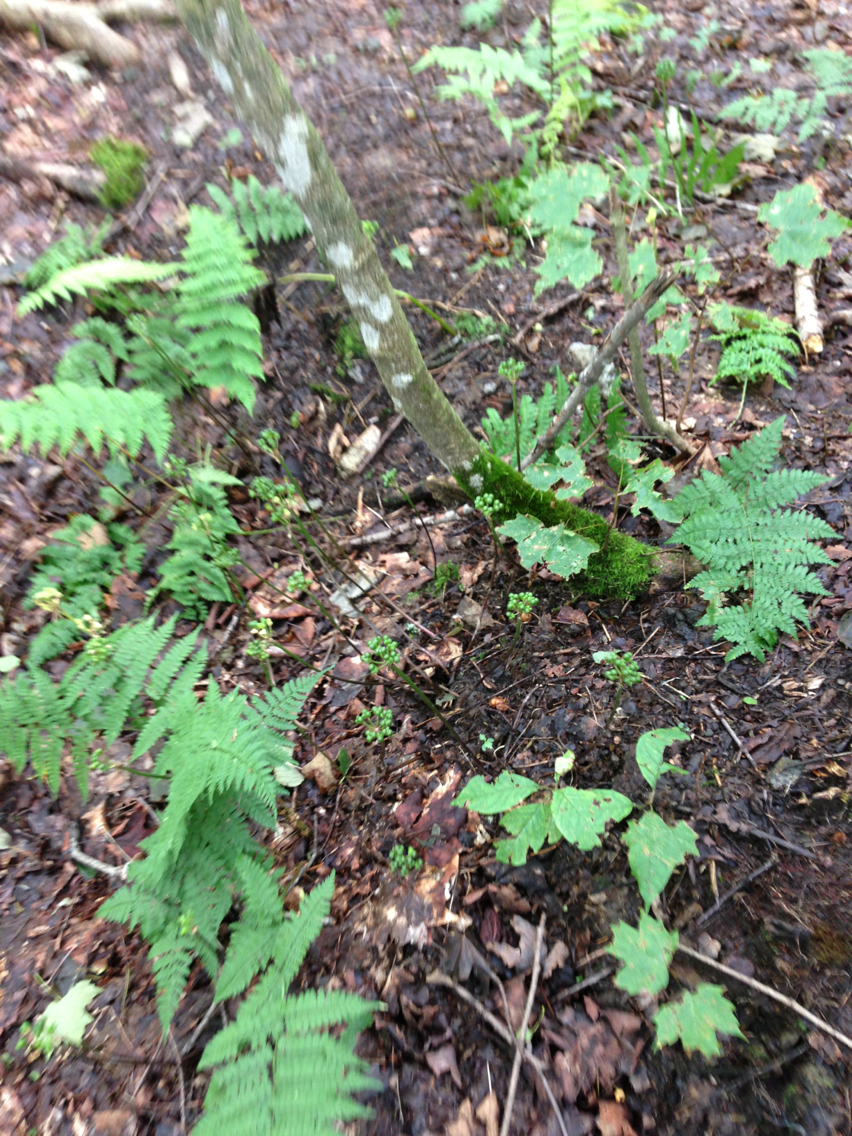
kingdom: Plantae
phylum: Tracheophyta
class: Liliopsida
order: Asparagales
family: Amaryllidaceae
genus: Allium
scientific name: Allium tricoccum
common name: Ramp
